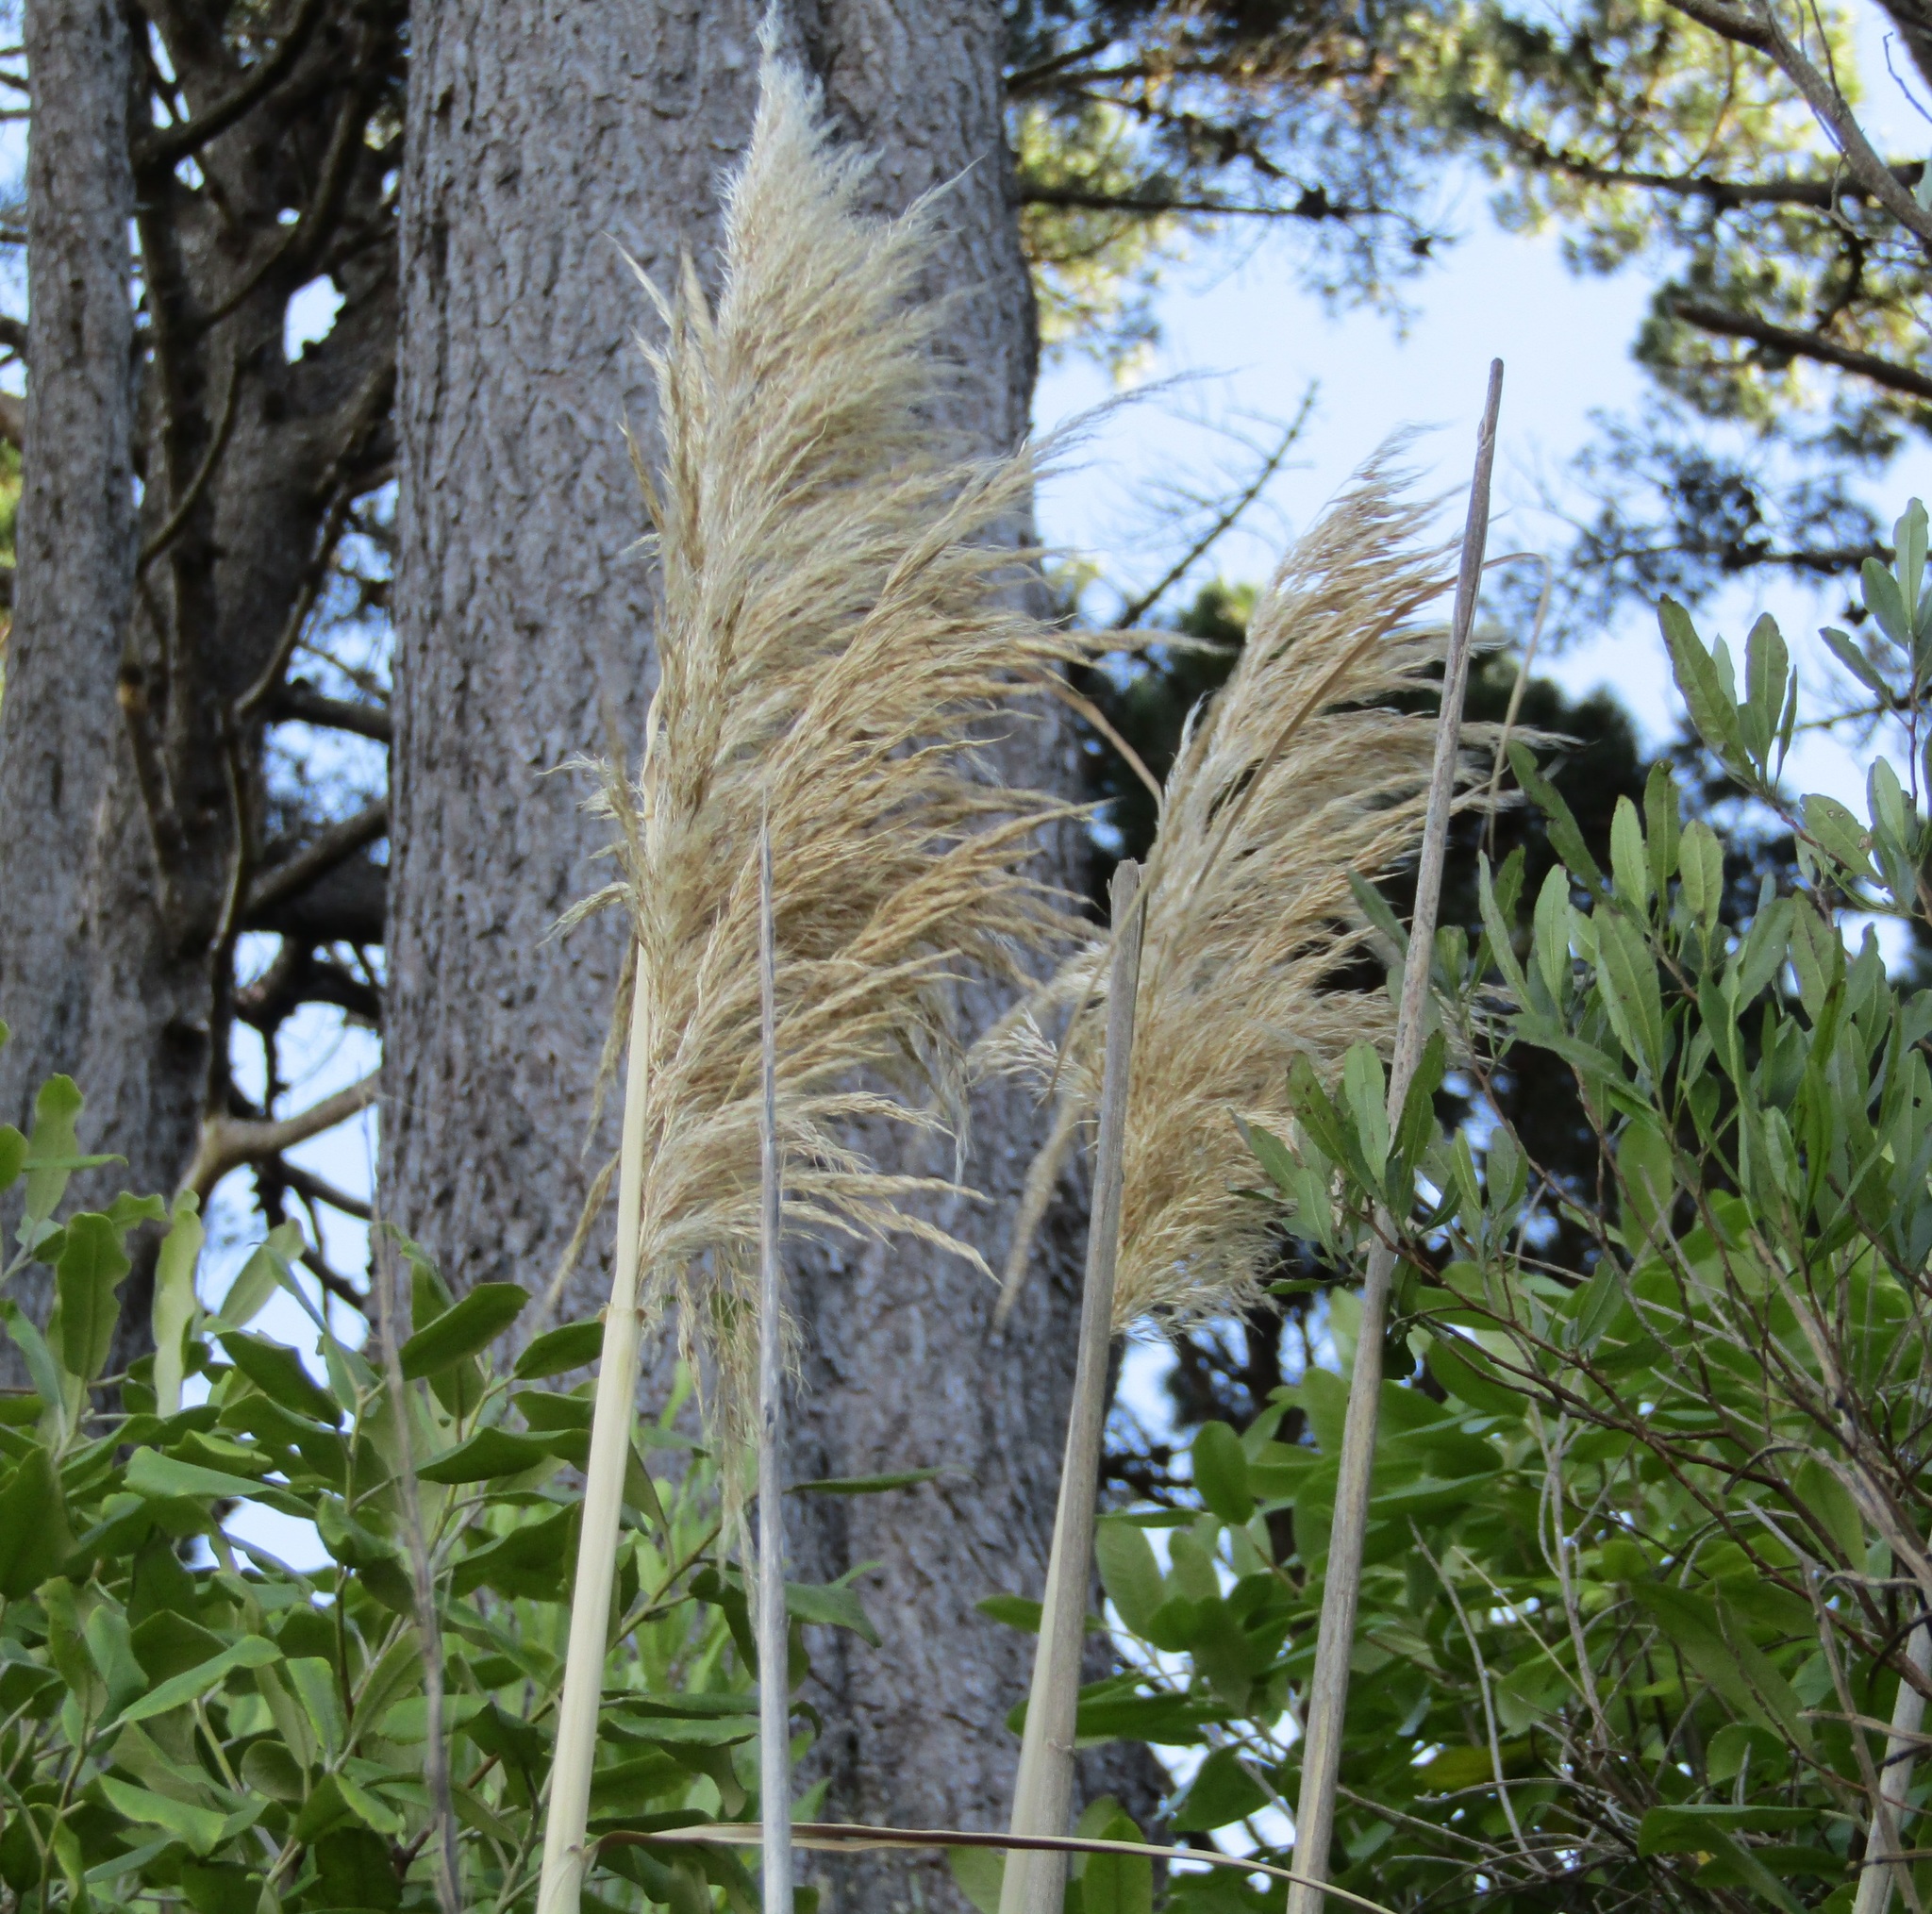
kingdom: Plantae
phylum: Tracheophyta
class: Liliopsida
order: Poales
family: Poaceae
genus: Cortaderia
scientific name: Cortaderia selloana
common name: Uruguayan pampas grass
